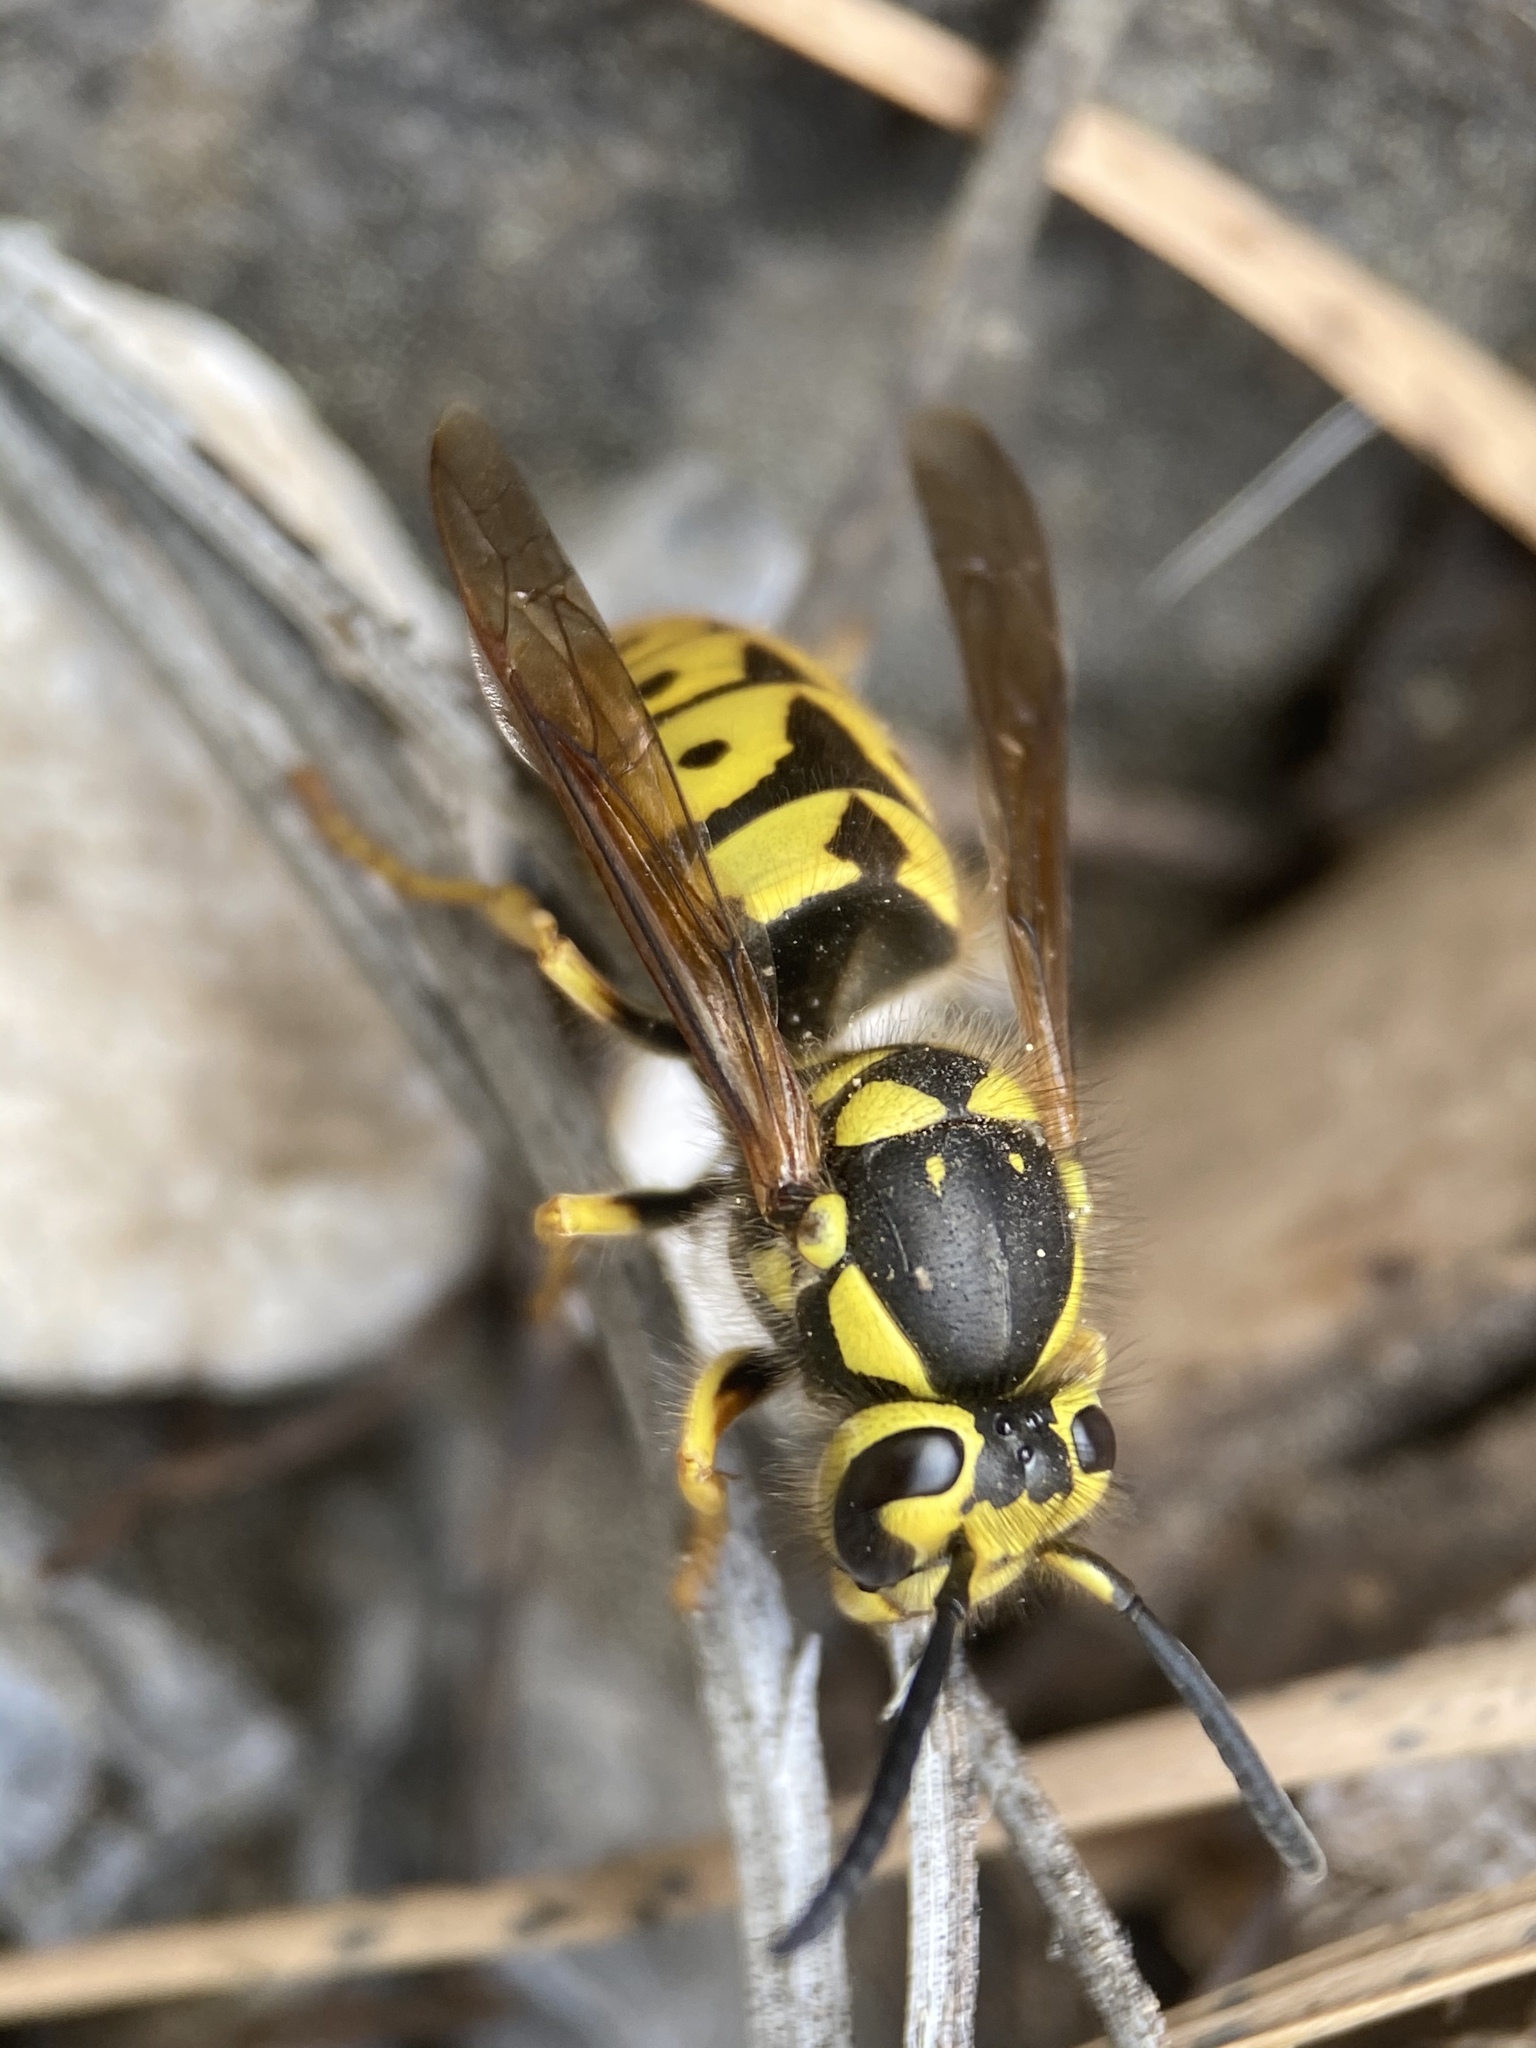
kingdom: Animalia
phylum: Arthropoda
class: Insecta
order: Hymenoptera
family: Vespidae
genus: Vespula
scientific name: Vespula pensylvanica
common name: Western yellowjacket
